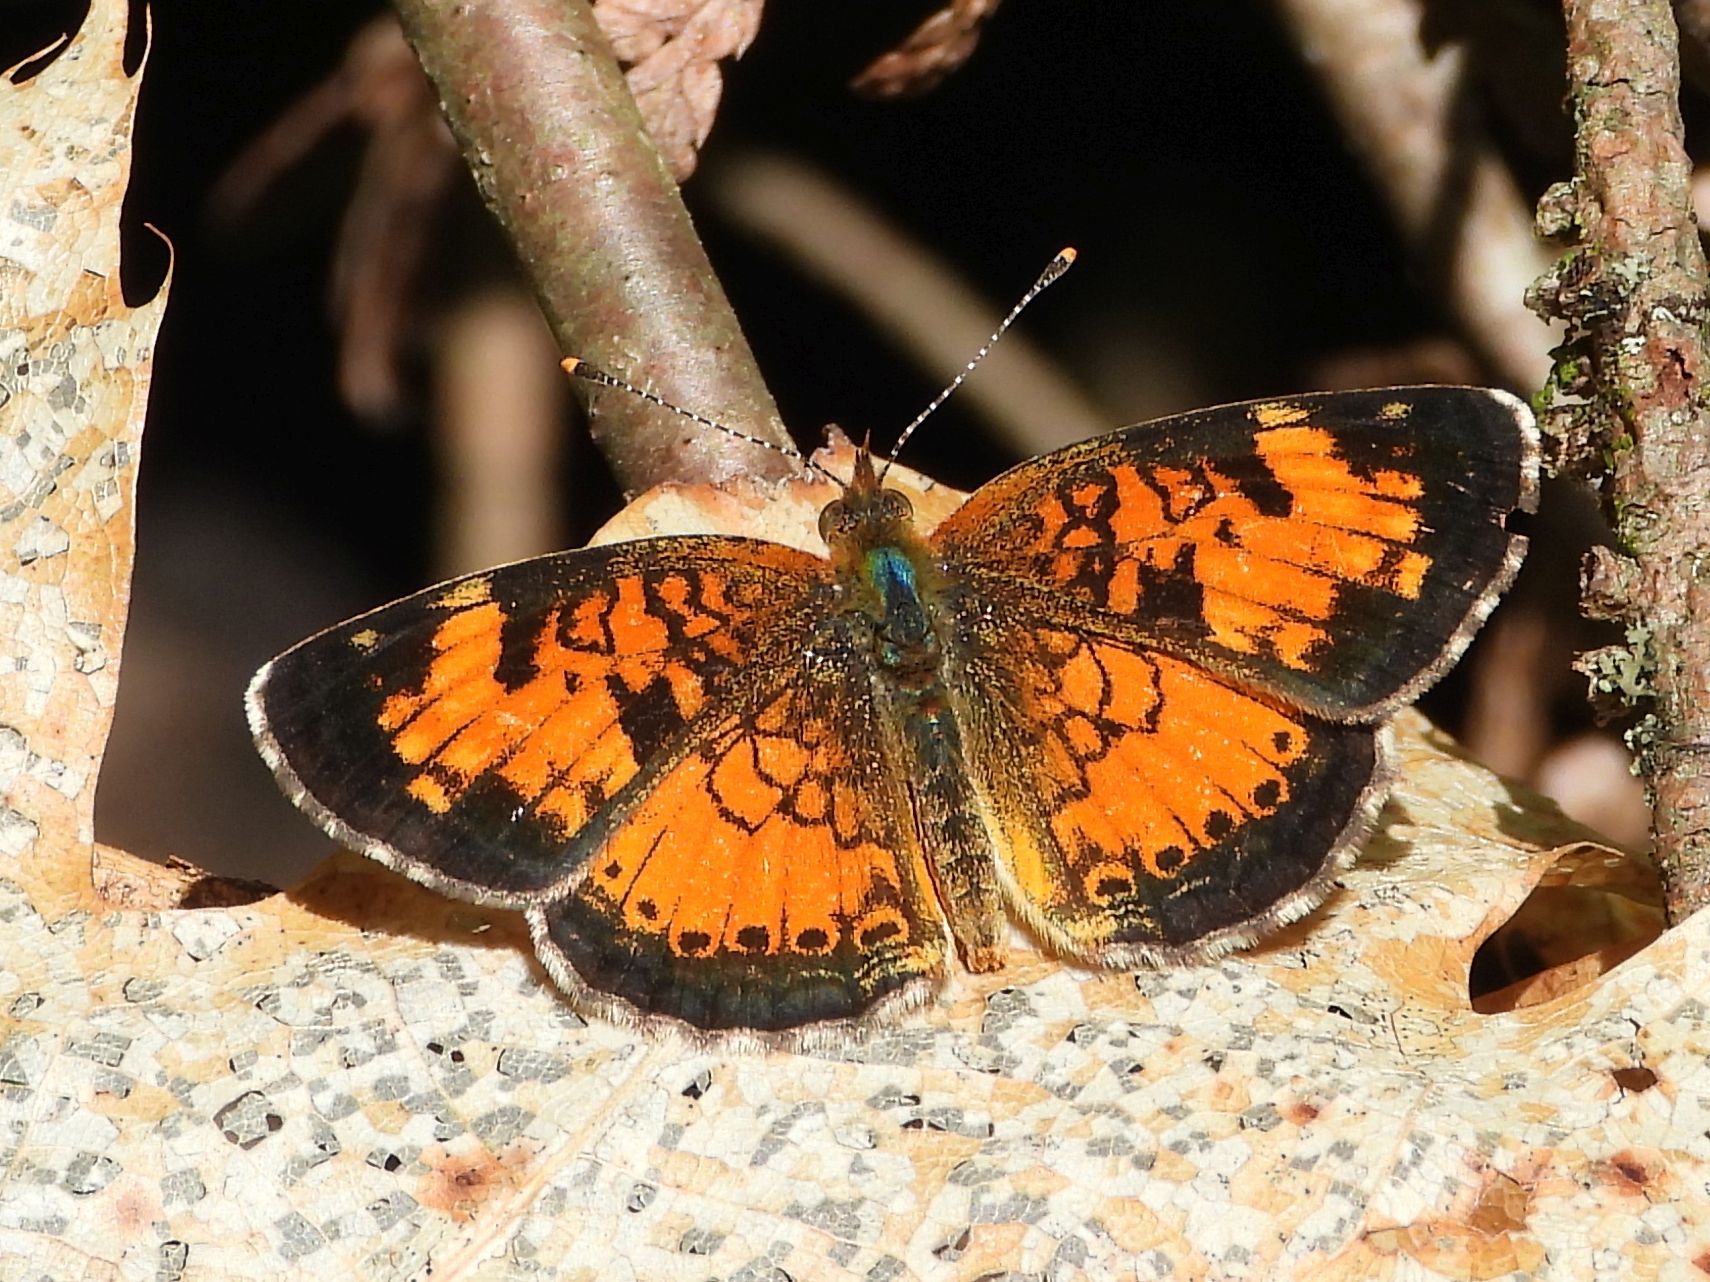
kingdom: Animalia
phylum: Arthropoda
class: Insecta
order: Lepidoptera
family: Nymphalidae
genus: Phyciodes
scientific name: Phyciodes tharos
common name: Pearl crescent
